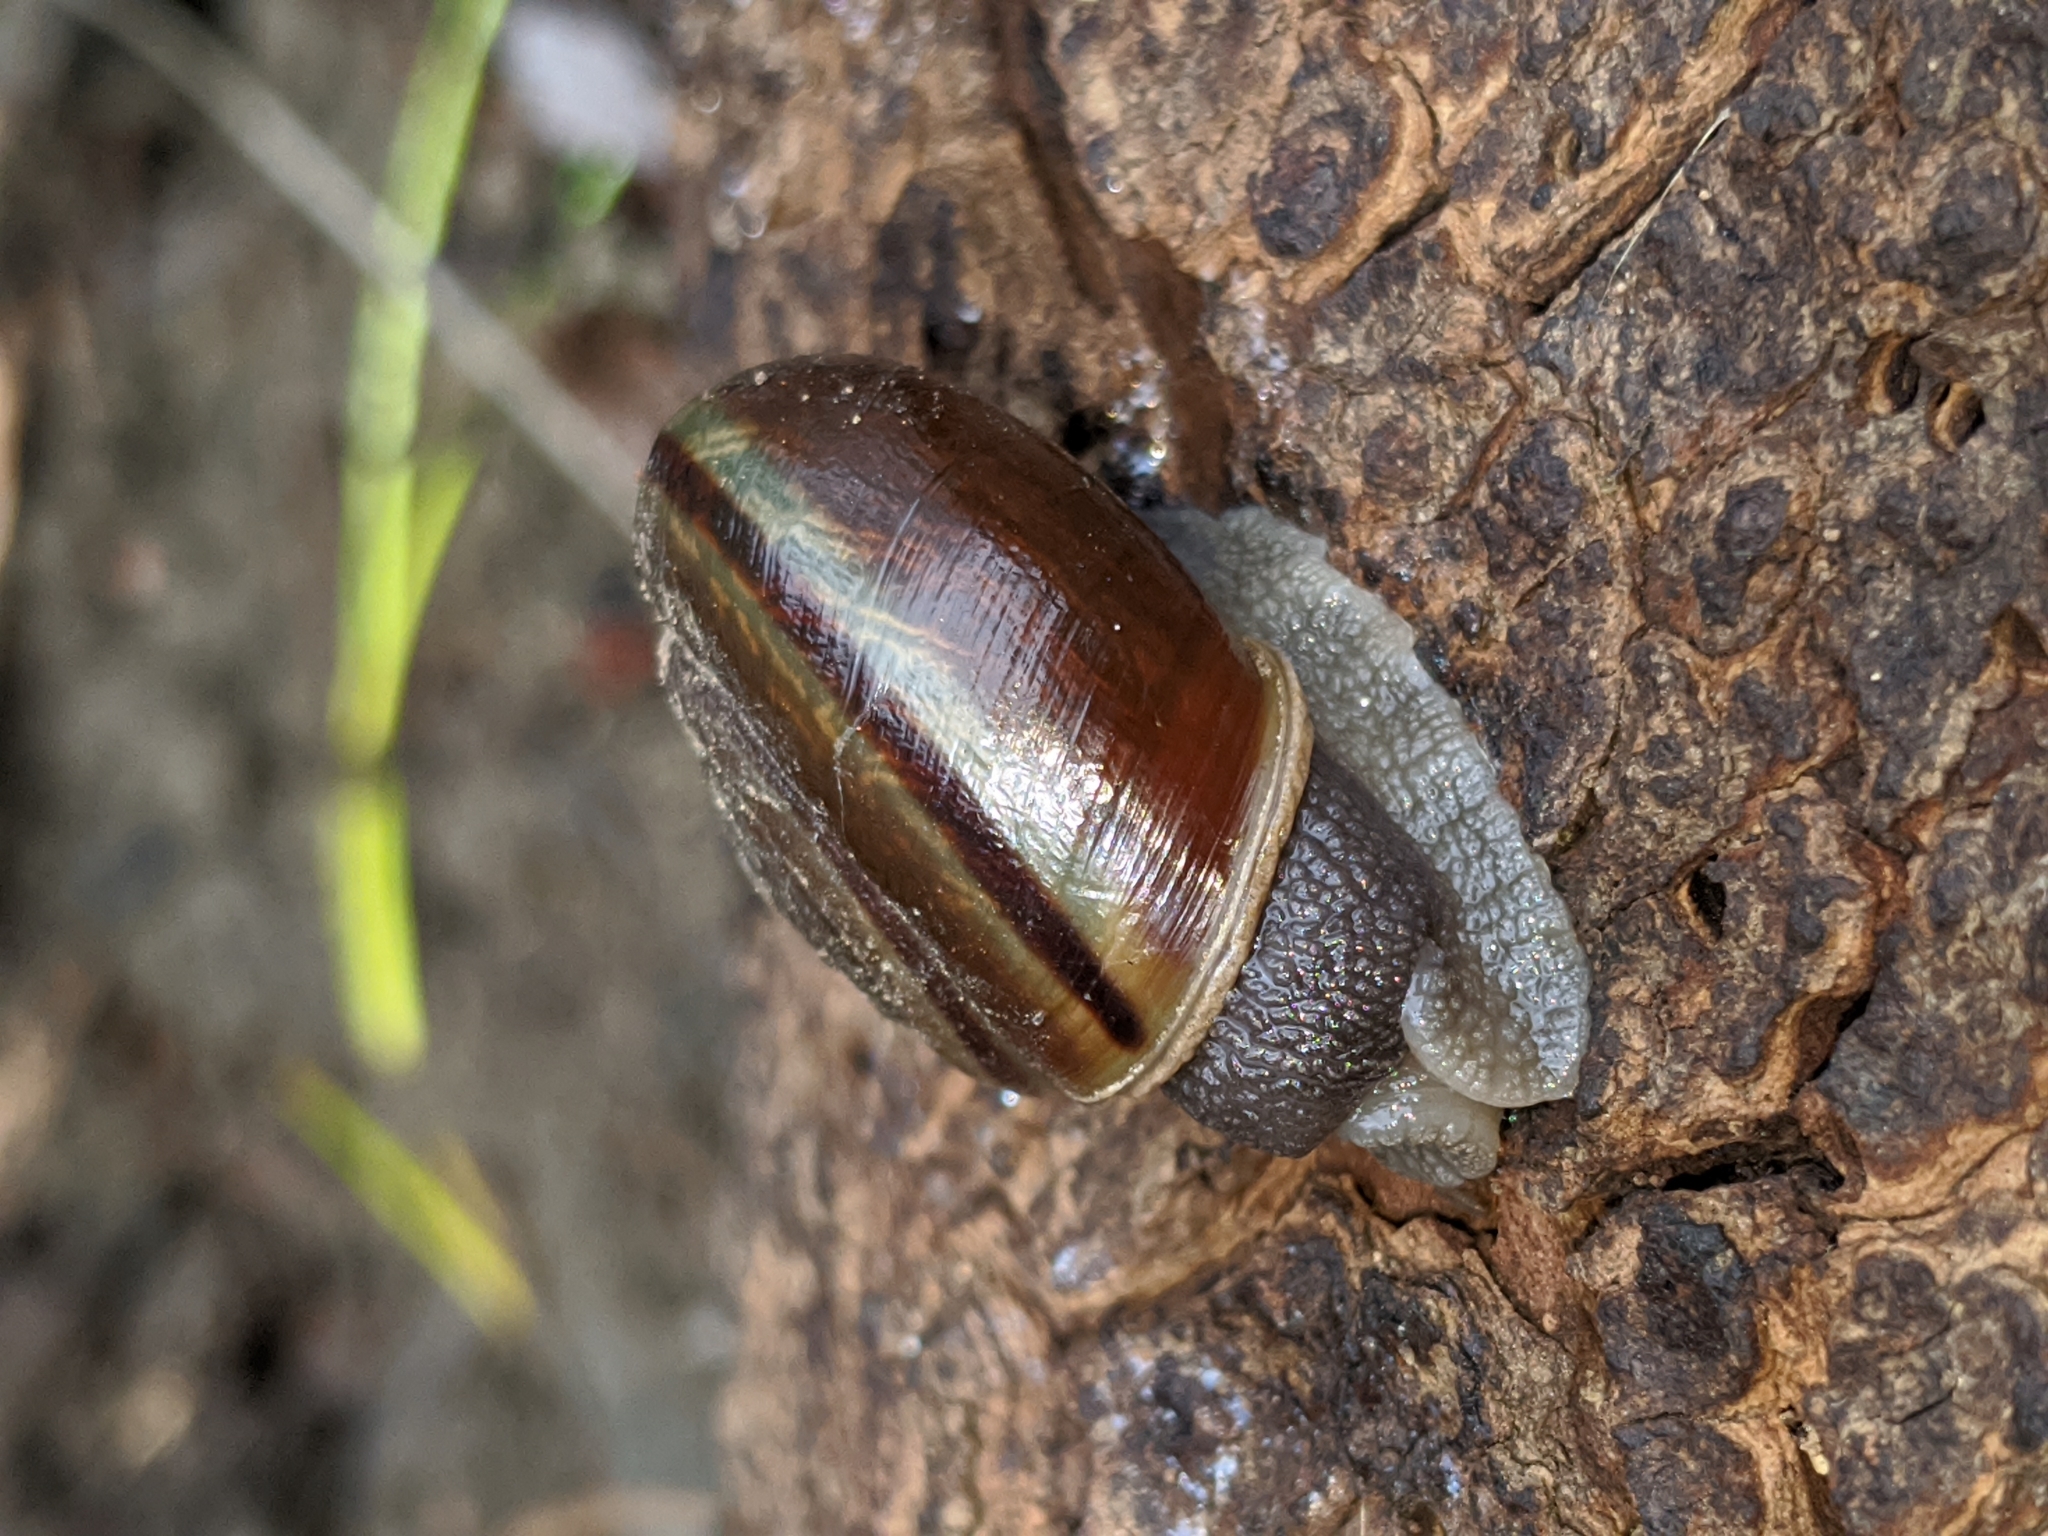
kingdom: Animalia
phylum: Mollusca
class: Gastropoda
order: Stylommatophora
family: Xanthonychidae
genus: Helminthoglypta
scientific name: Helminthoglypta umbilicata
